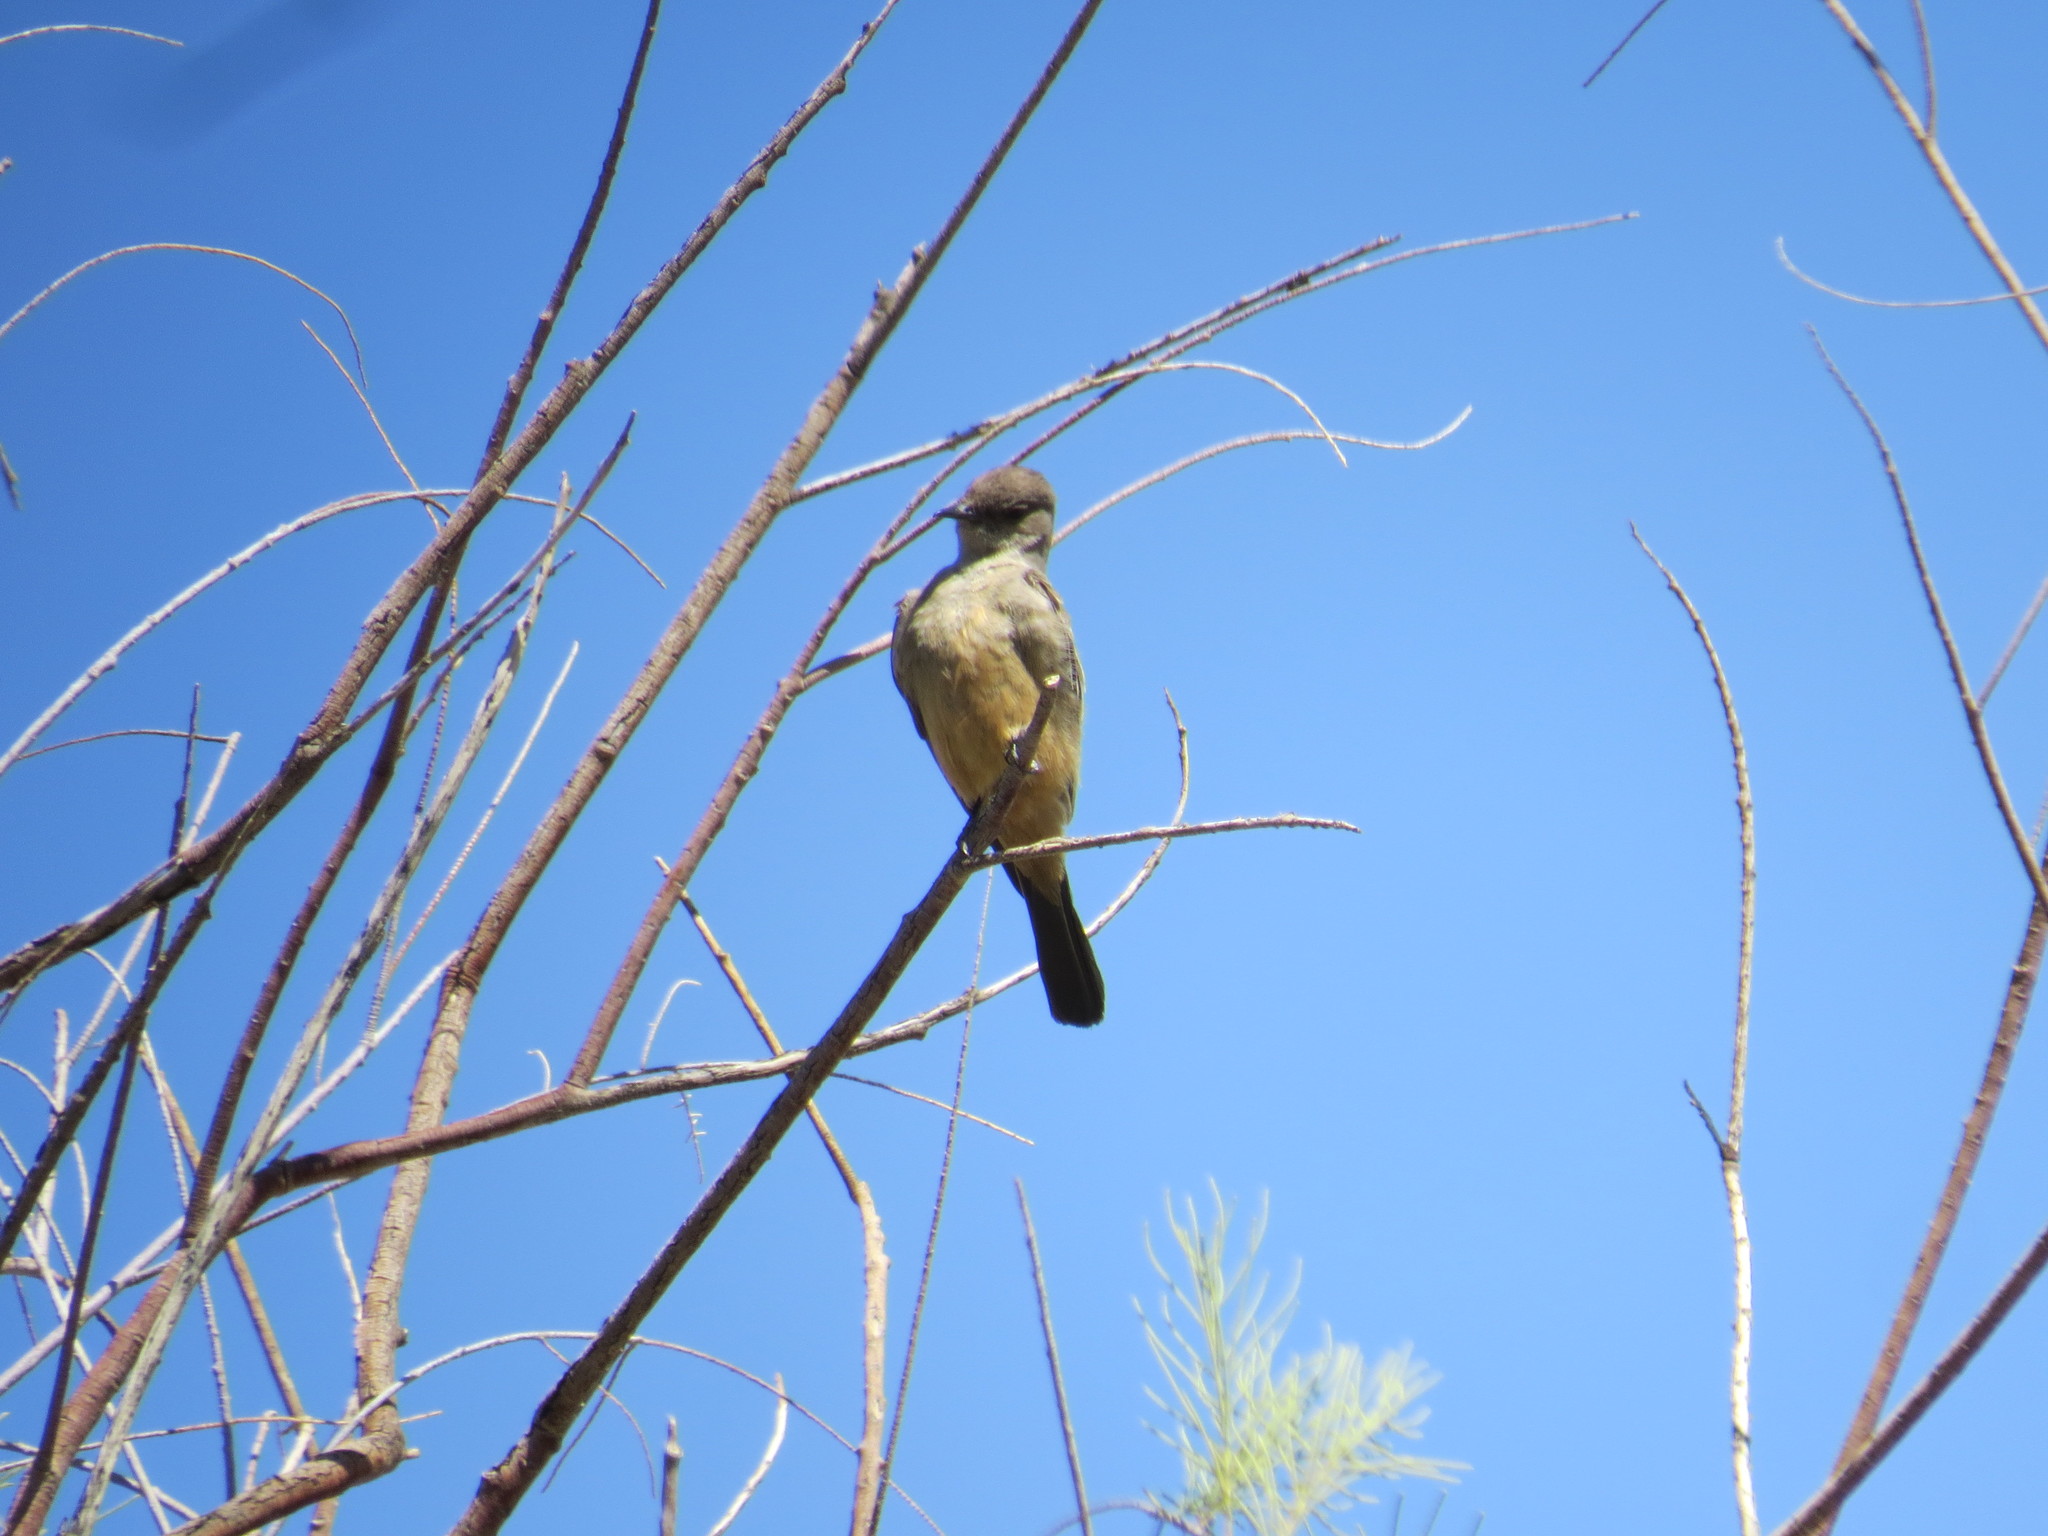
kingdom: Animalia
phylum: Chordata
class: Aves
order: Passeriformes
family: Tyrannidae
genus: Sayornis
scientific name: Sayornis saya
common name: Say's phoebe
